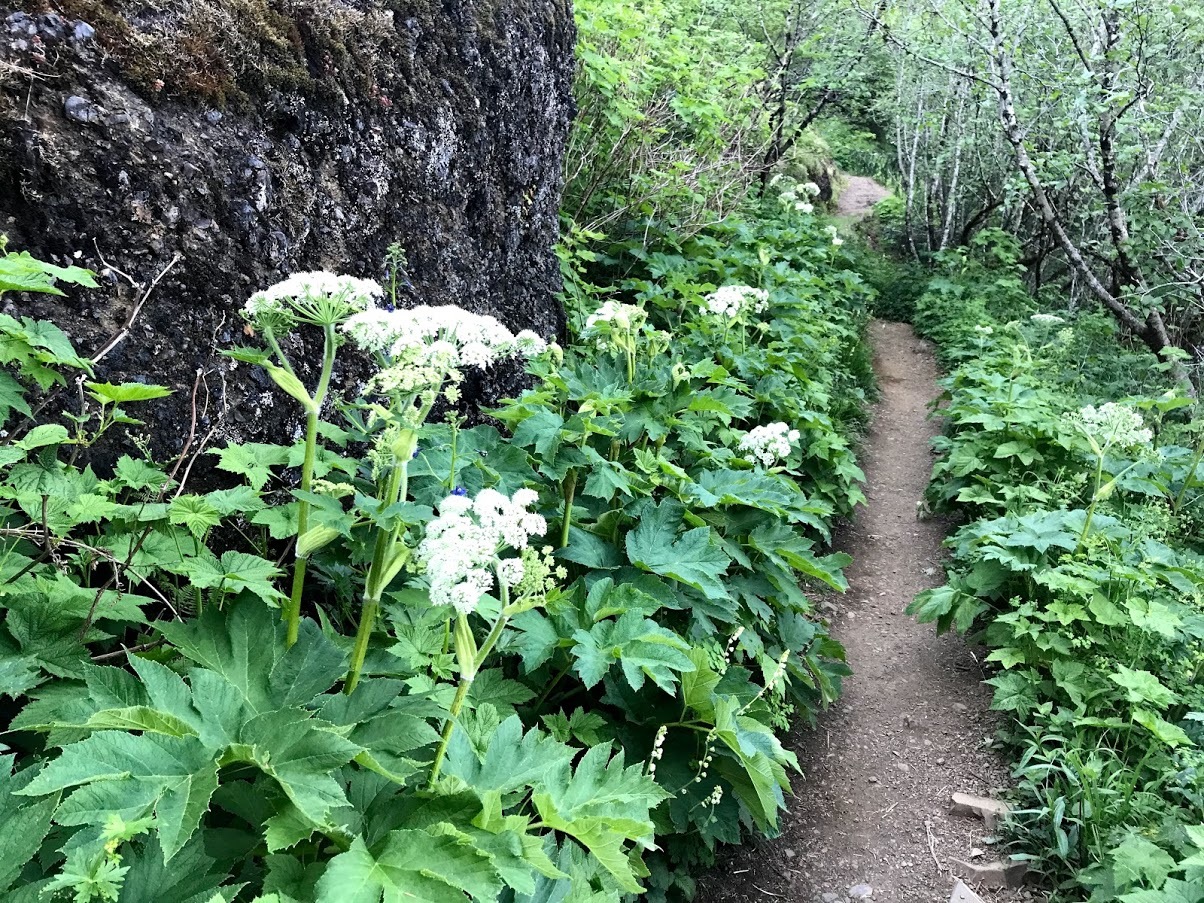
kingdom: Plantae
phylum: Tracheophyta
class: Magnoliopsida
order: Apiales
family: Apiaceae
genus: Heracleum
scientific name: Heracleum maximum
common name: American cow parsnip
